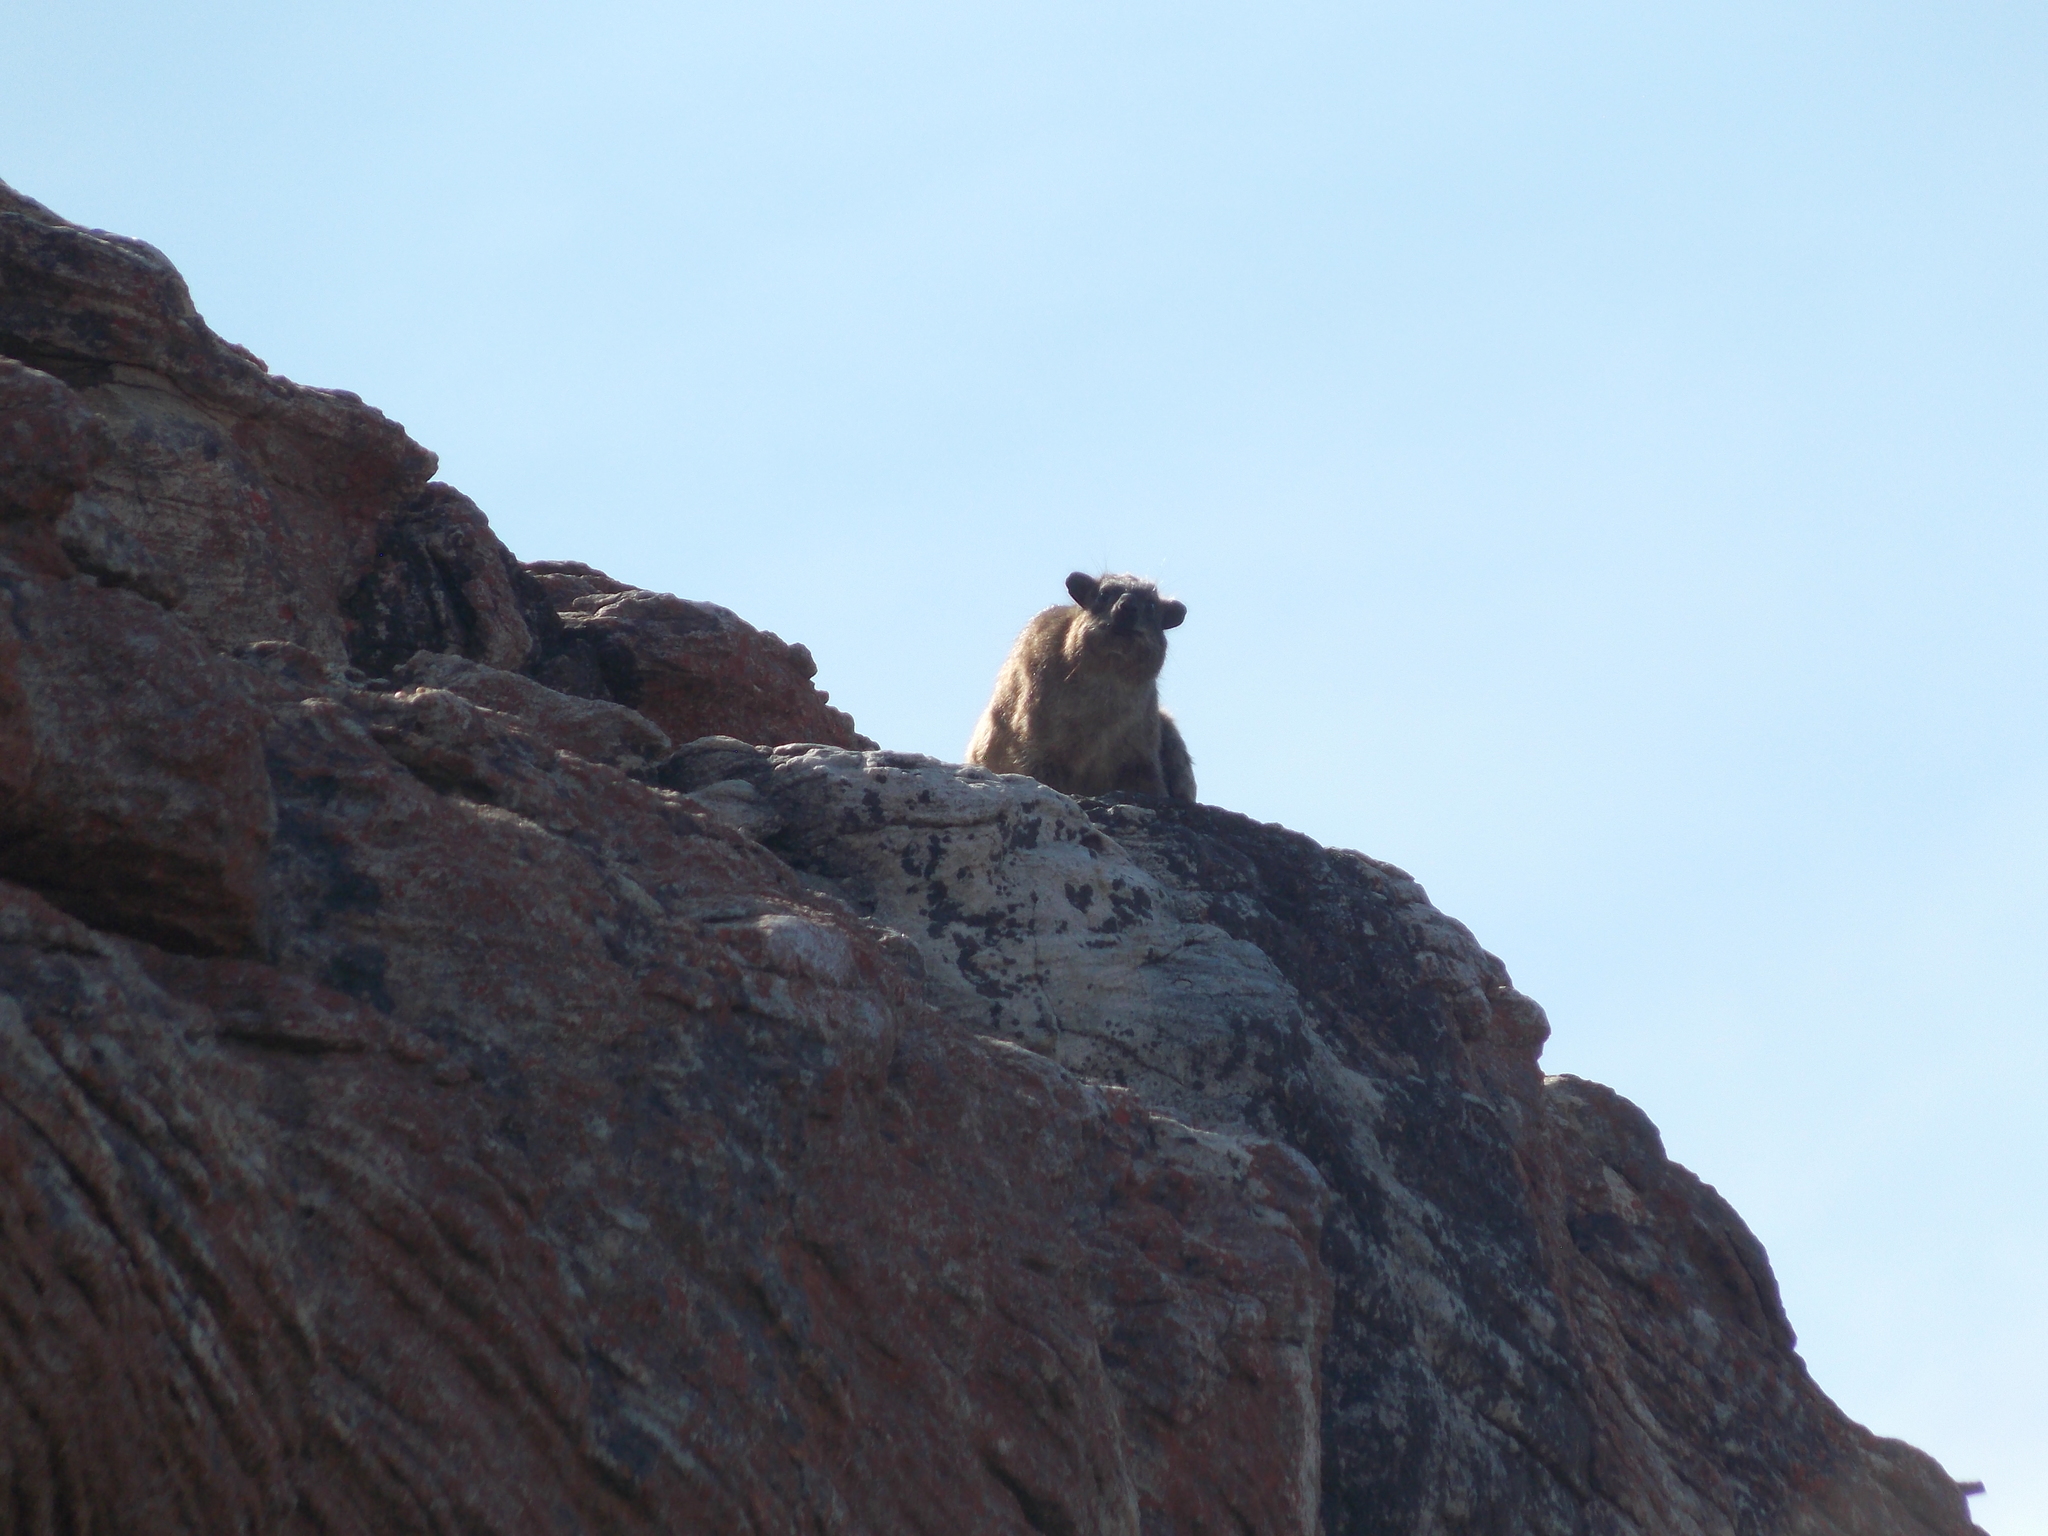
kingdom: Animalia
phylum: Chordata
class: Mammalia
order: Hyracoidea
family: Procaviidae
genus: Procavia
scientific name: Procavia capensis
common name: Rock hyrax
